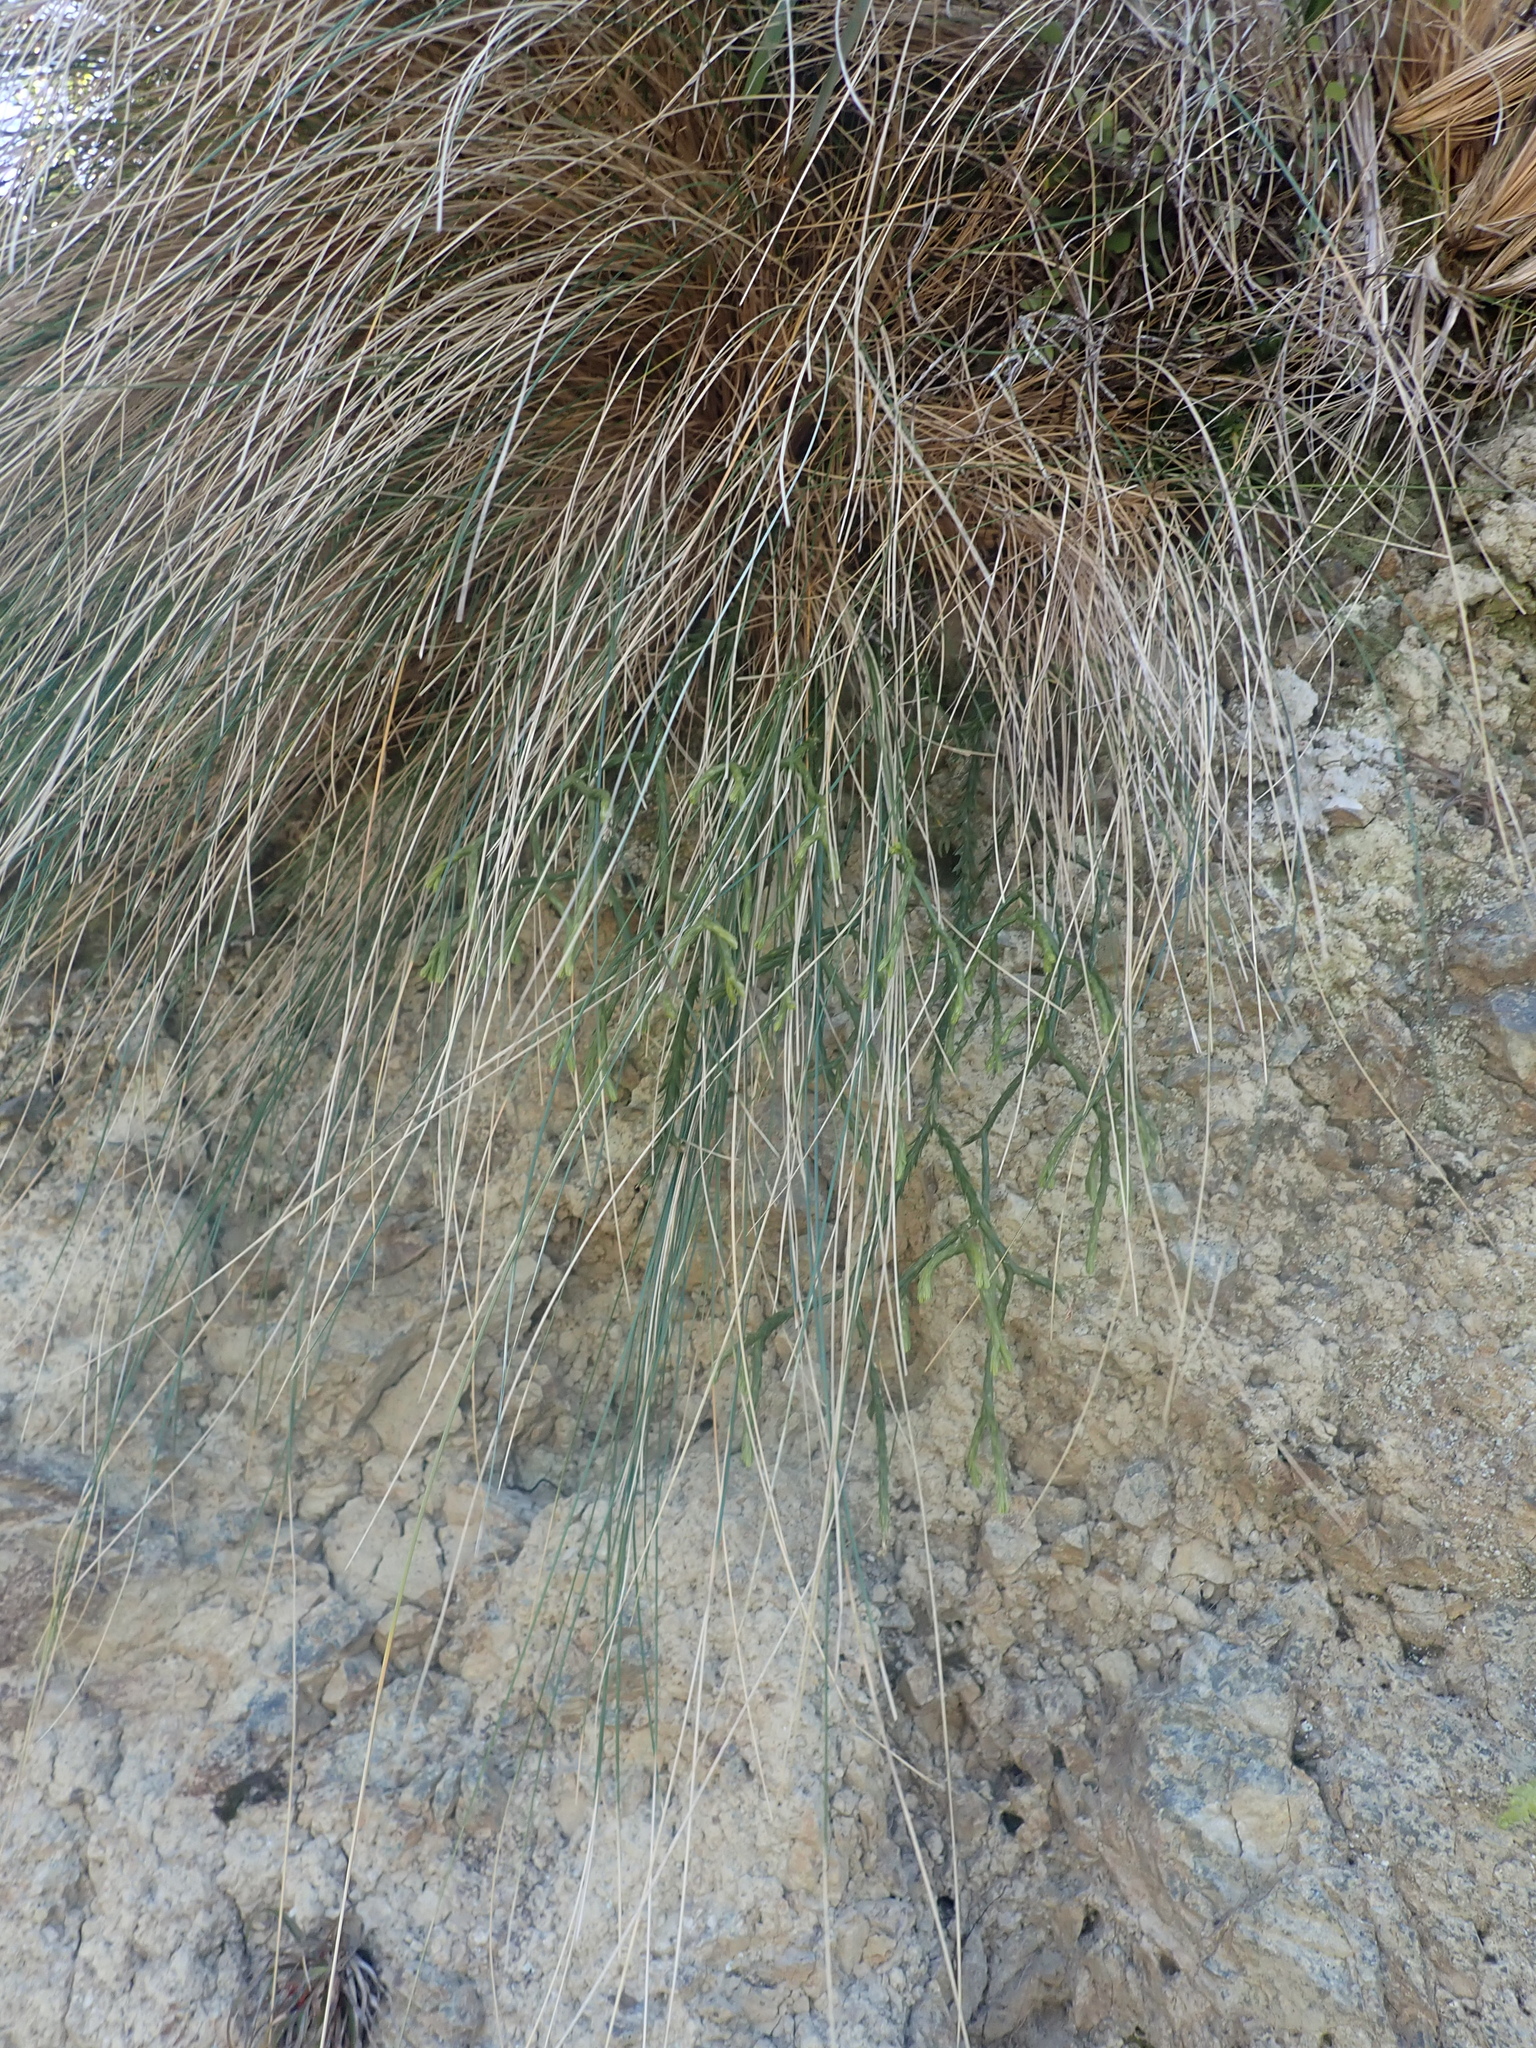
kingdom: Plantae
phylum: Tracheophyta
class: Lycopodiopsida
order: Lycopodiales
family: Lycopodiaceae
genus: Phlegmariurus
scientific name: Phlegmariurus billardierei
